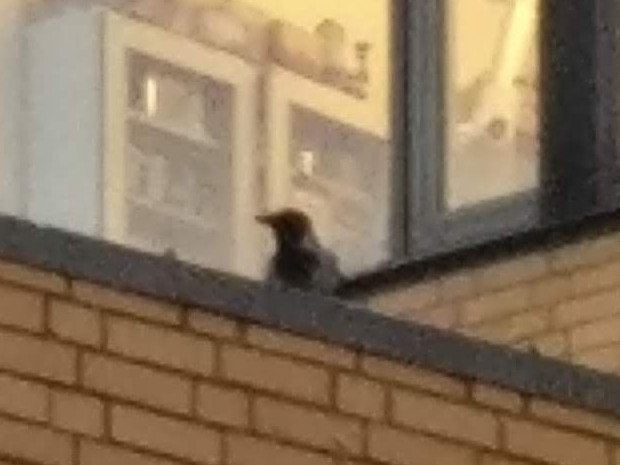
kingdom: Animalia
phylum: Chordata
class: Aves
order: Passeriformes
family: Corvidae
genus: Corvus
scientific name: Corvus cornix
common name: Hooded crow
